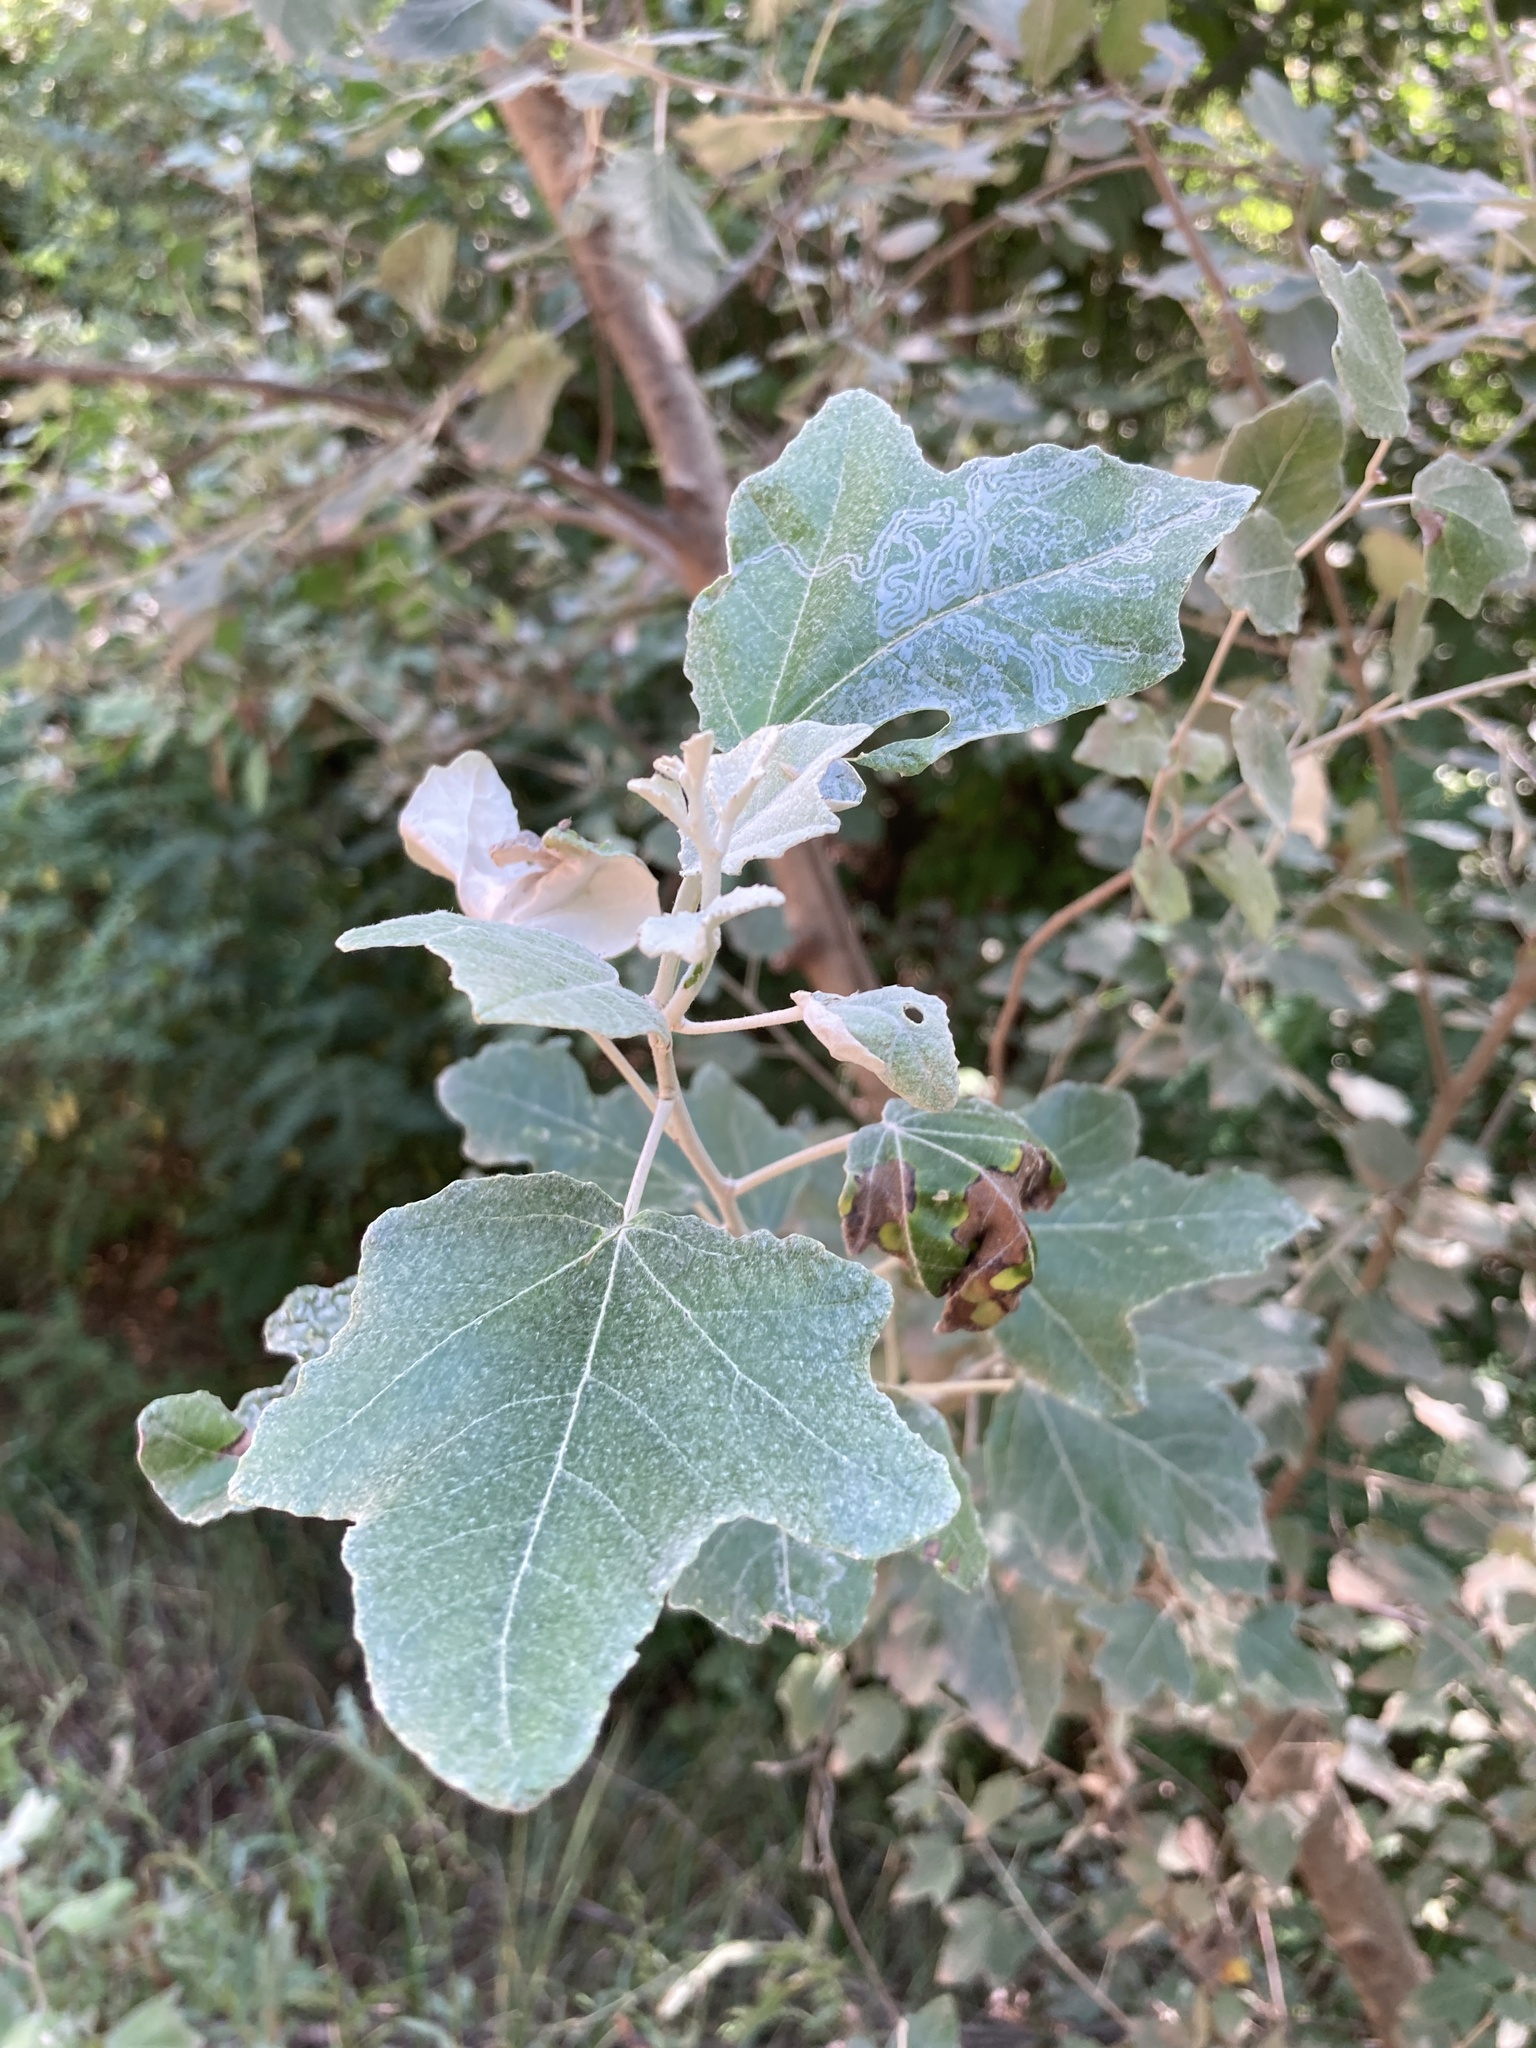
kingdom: Plantae
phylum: Tracheophyta
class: Magnoliopsida
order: Malpighiales
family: Salicaceae
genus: Populus
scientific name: Populus alba
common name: White poplar
